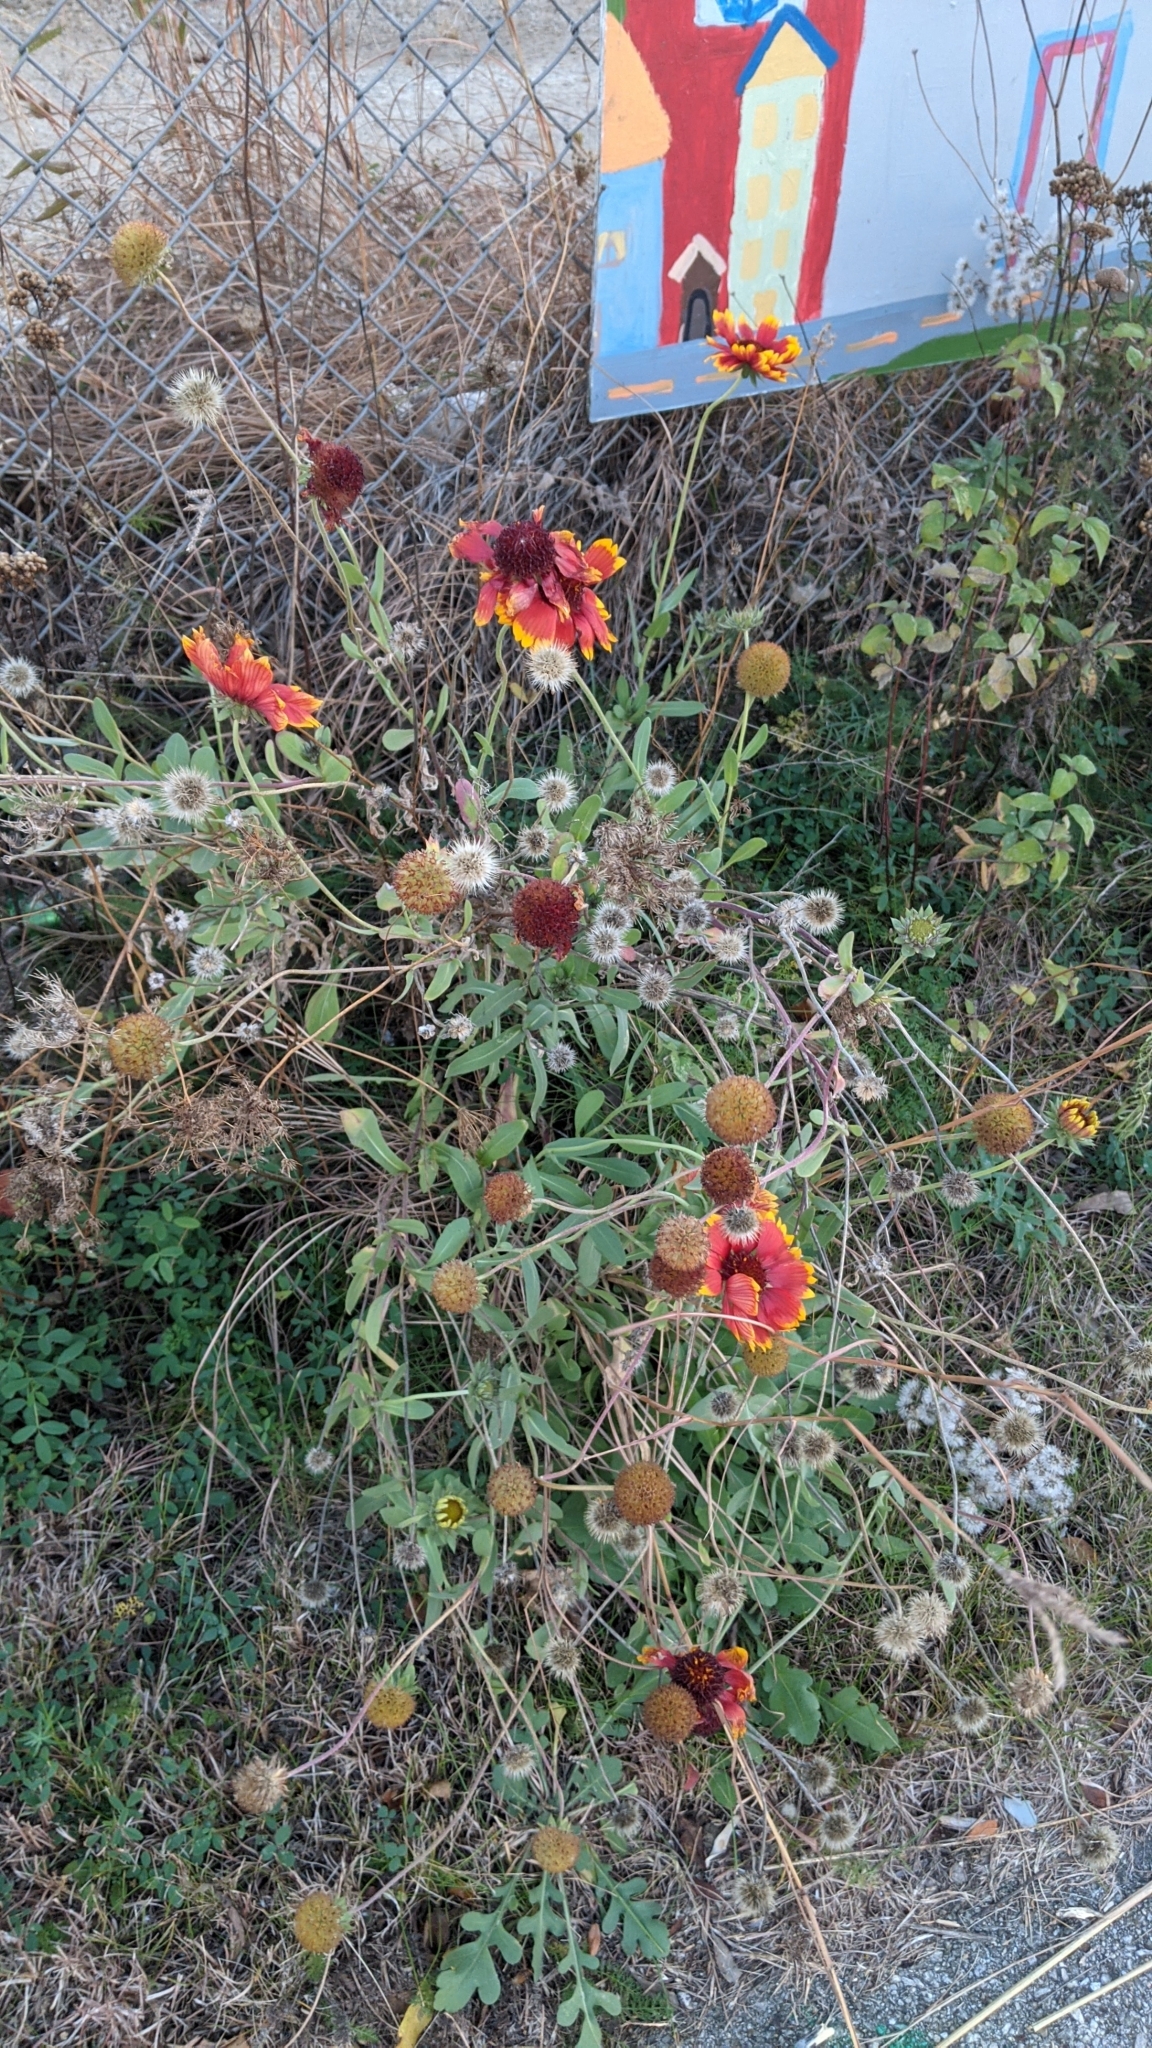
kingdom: Plantae
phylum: Tracheophyta
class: Magnoliopsida
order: Asterales
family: Asteraceae
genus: Gaillardia
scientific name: Gaillardia pulchella
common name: Firewheel
